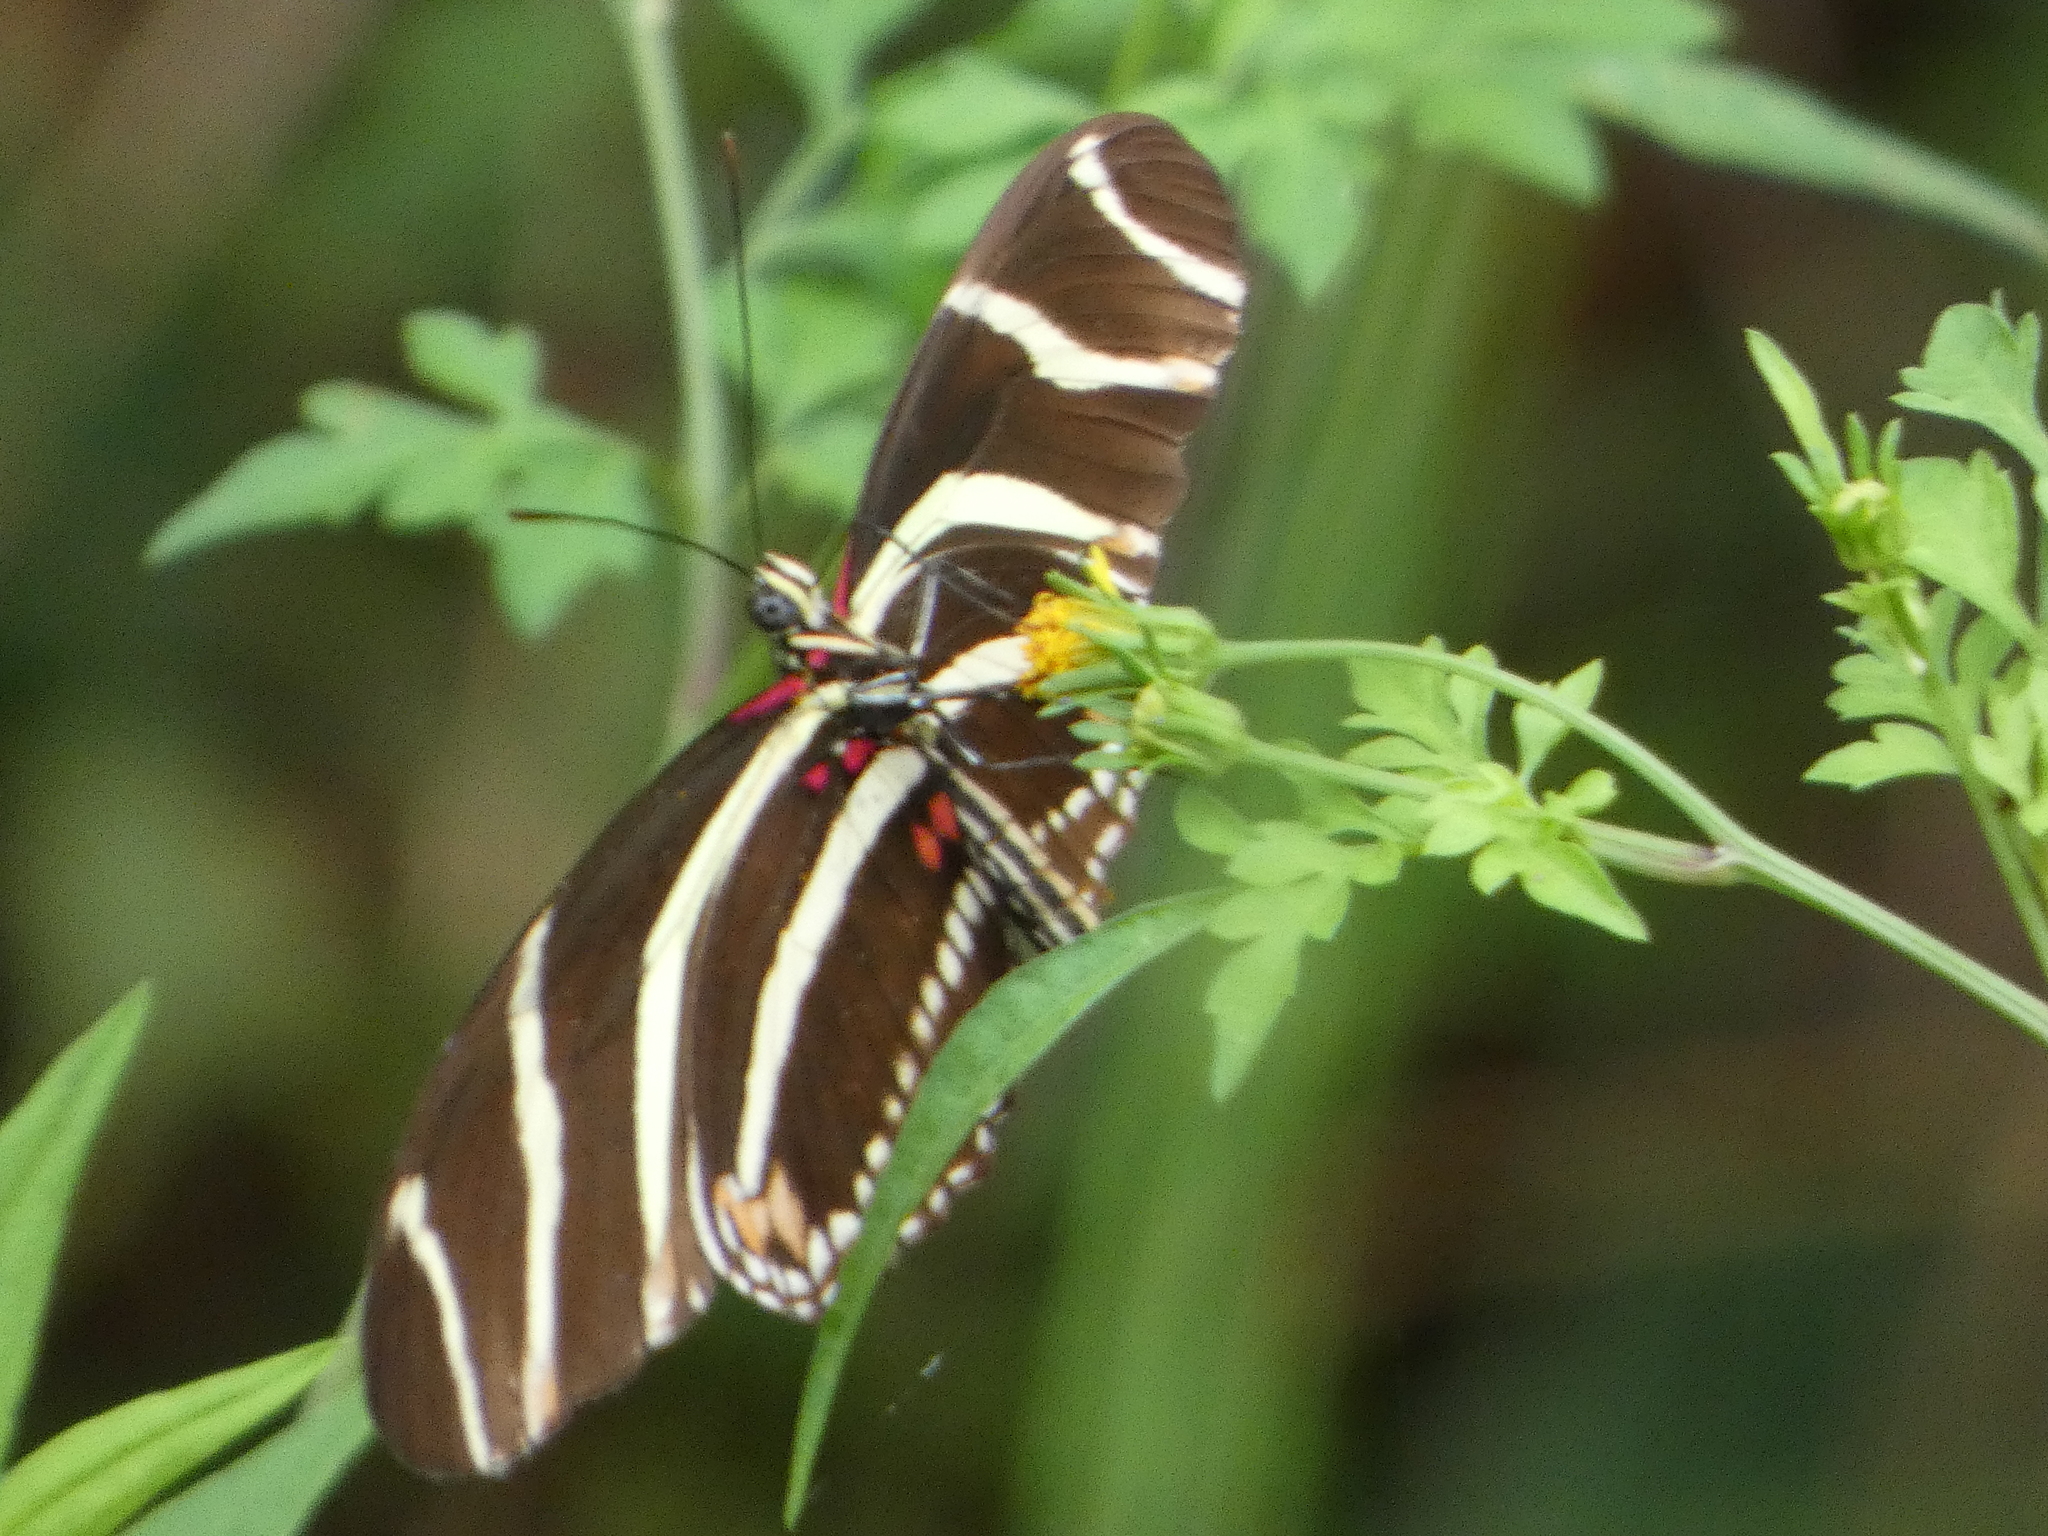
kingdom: Animalia
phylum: Arthropoda
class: Insecta
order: Lepidoptera
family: Nymphalidae
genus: Heliconius
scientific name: Heliconius charithonia
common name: Zebra long wing
